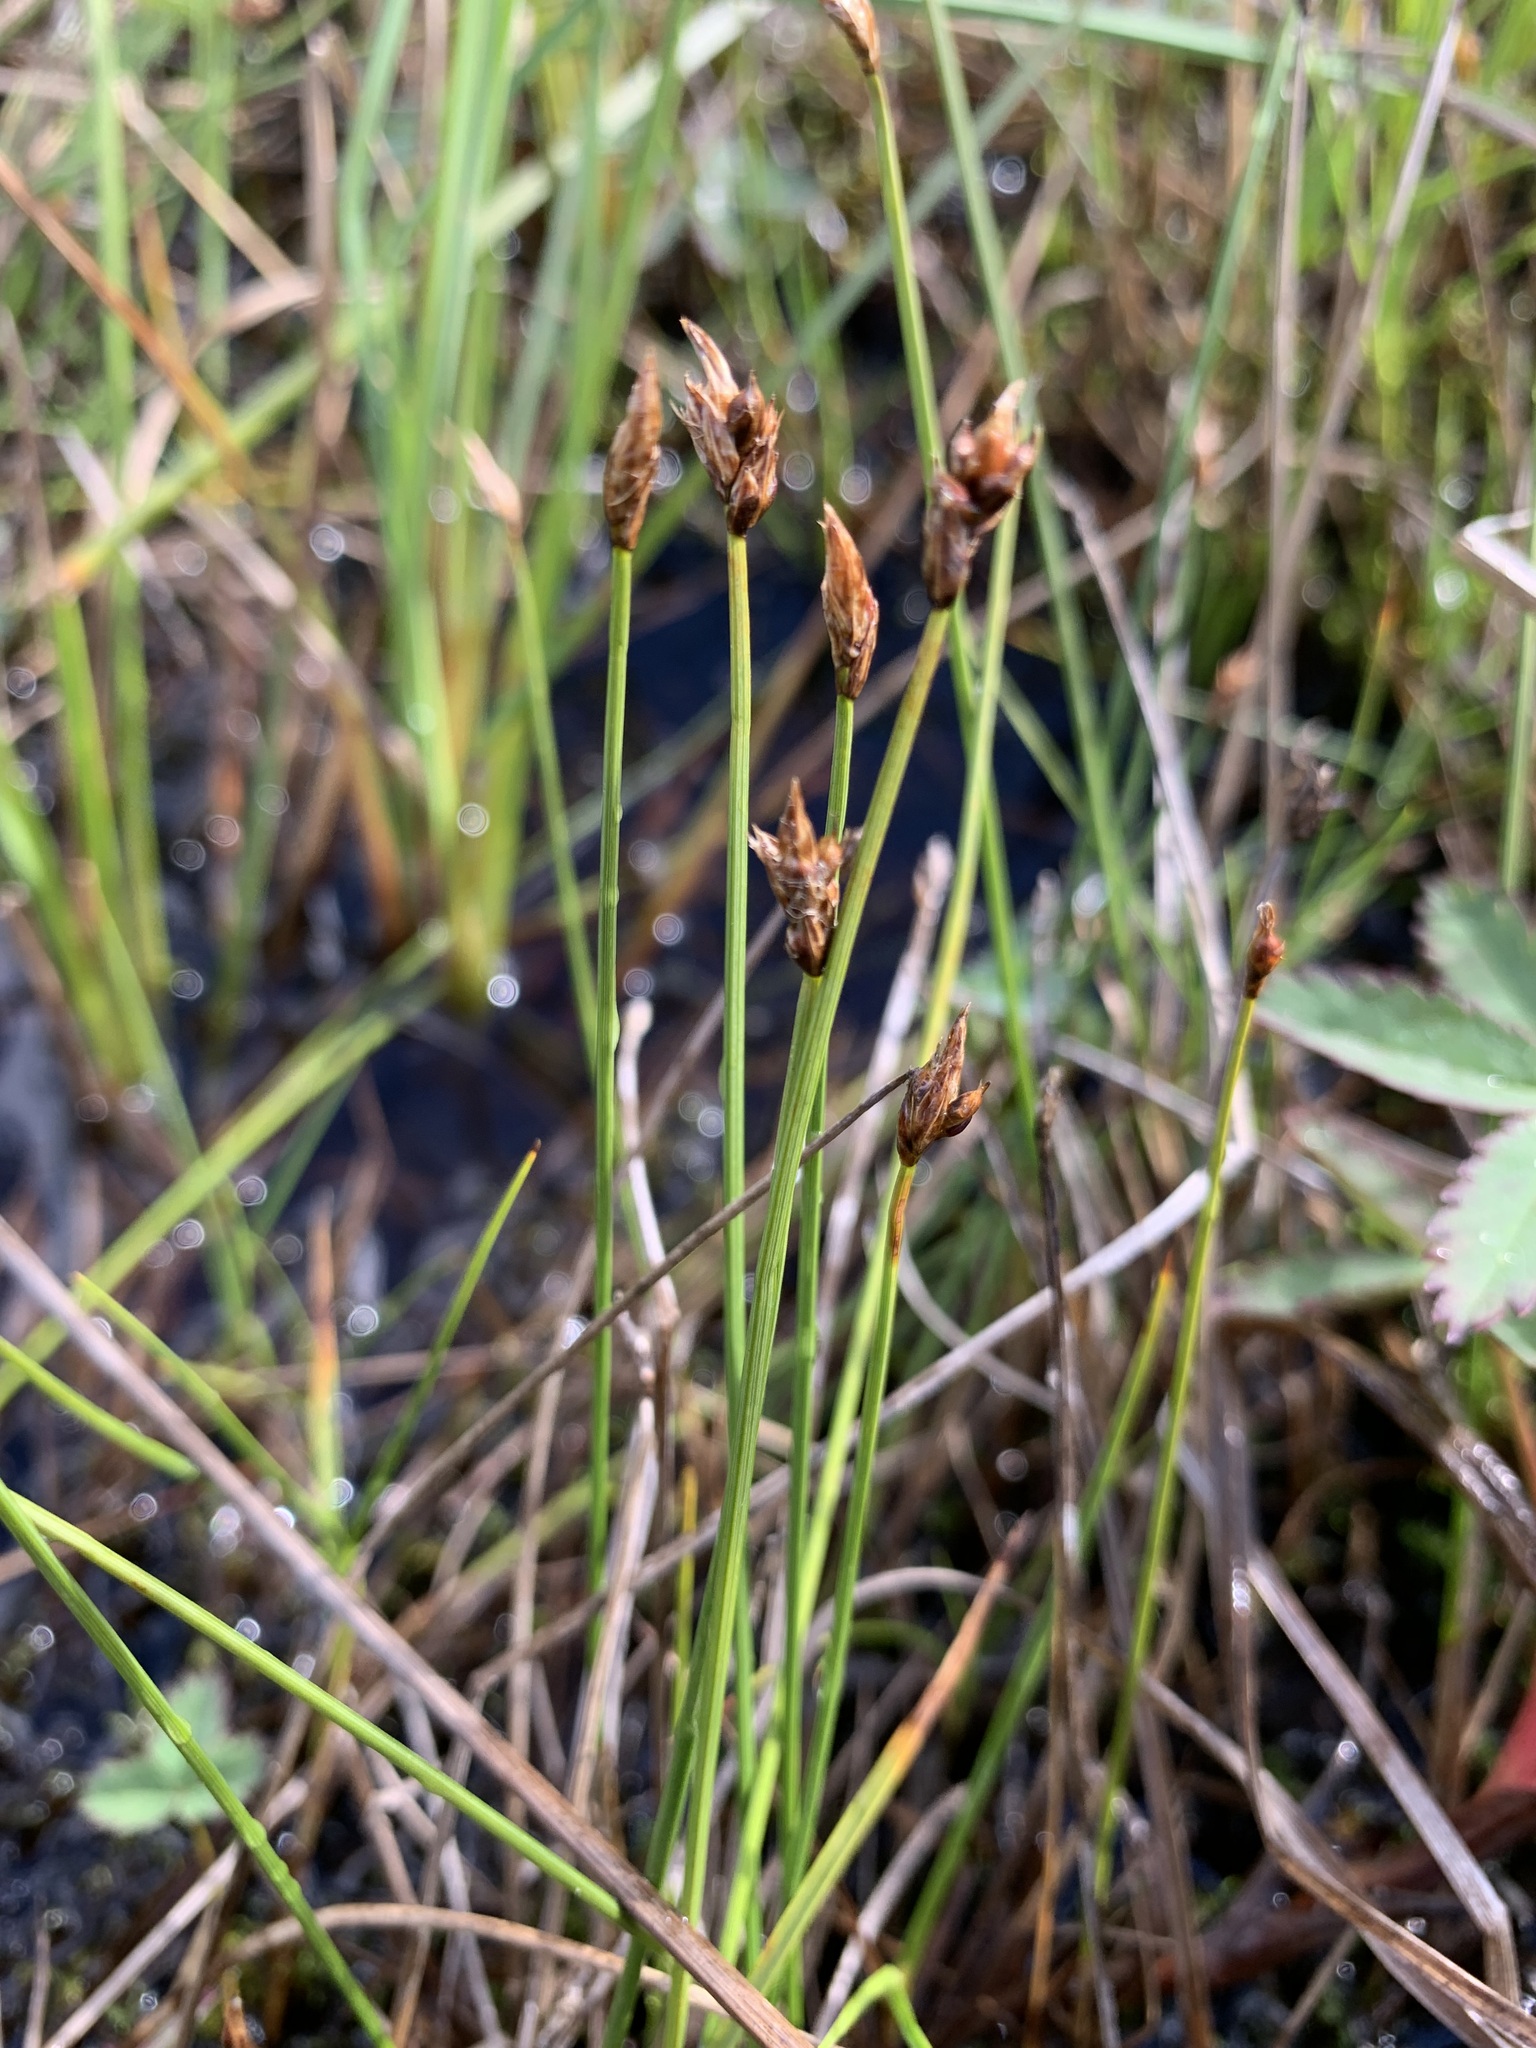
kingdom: Plantae
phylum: Tracheophyta
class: Liliopsida
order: Poales
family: Cyperaceae
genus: Carex
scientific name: Carex chordorrhiza
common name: String sedge
